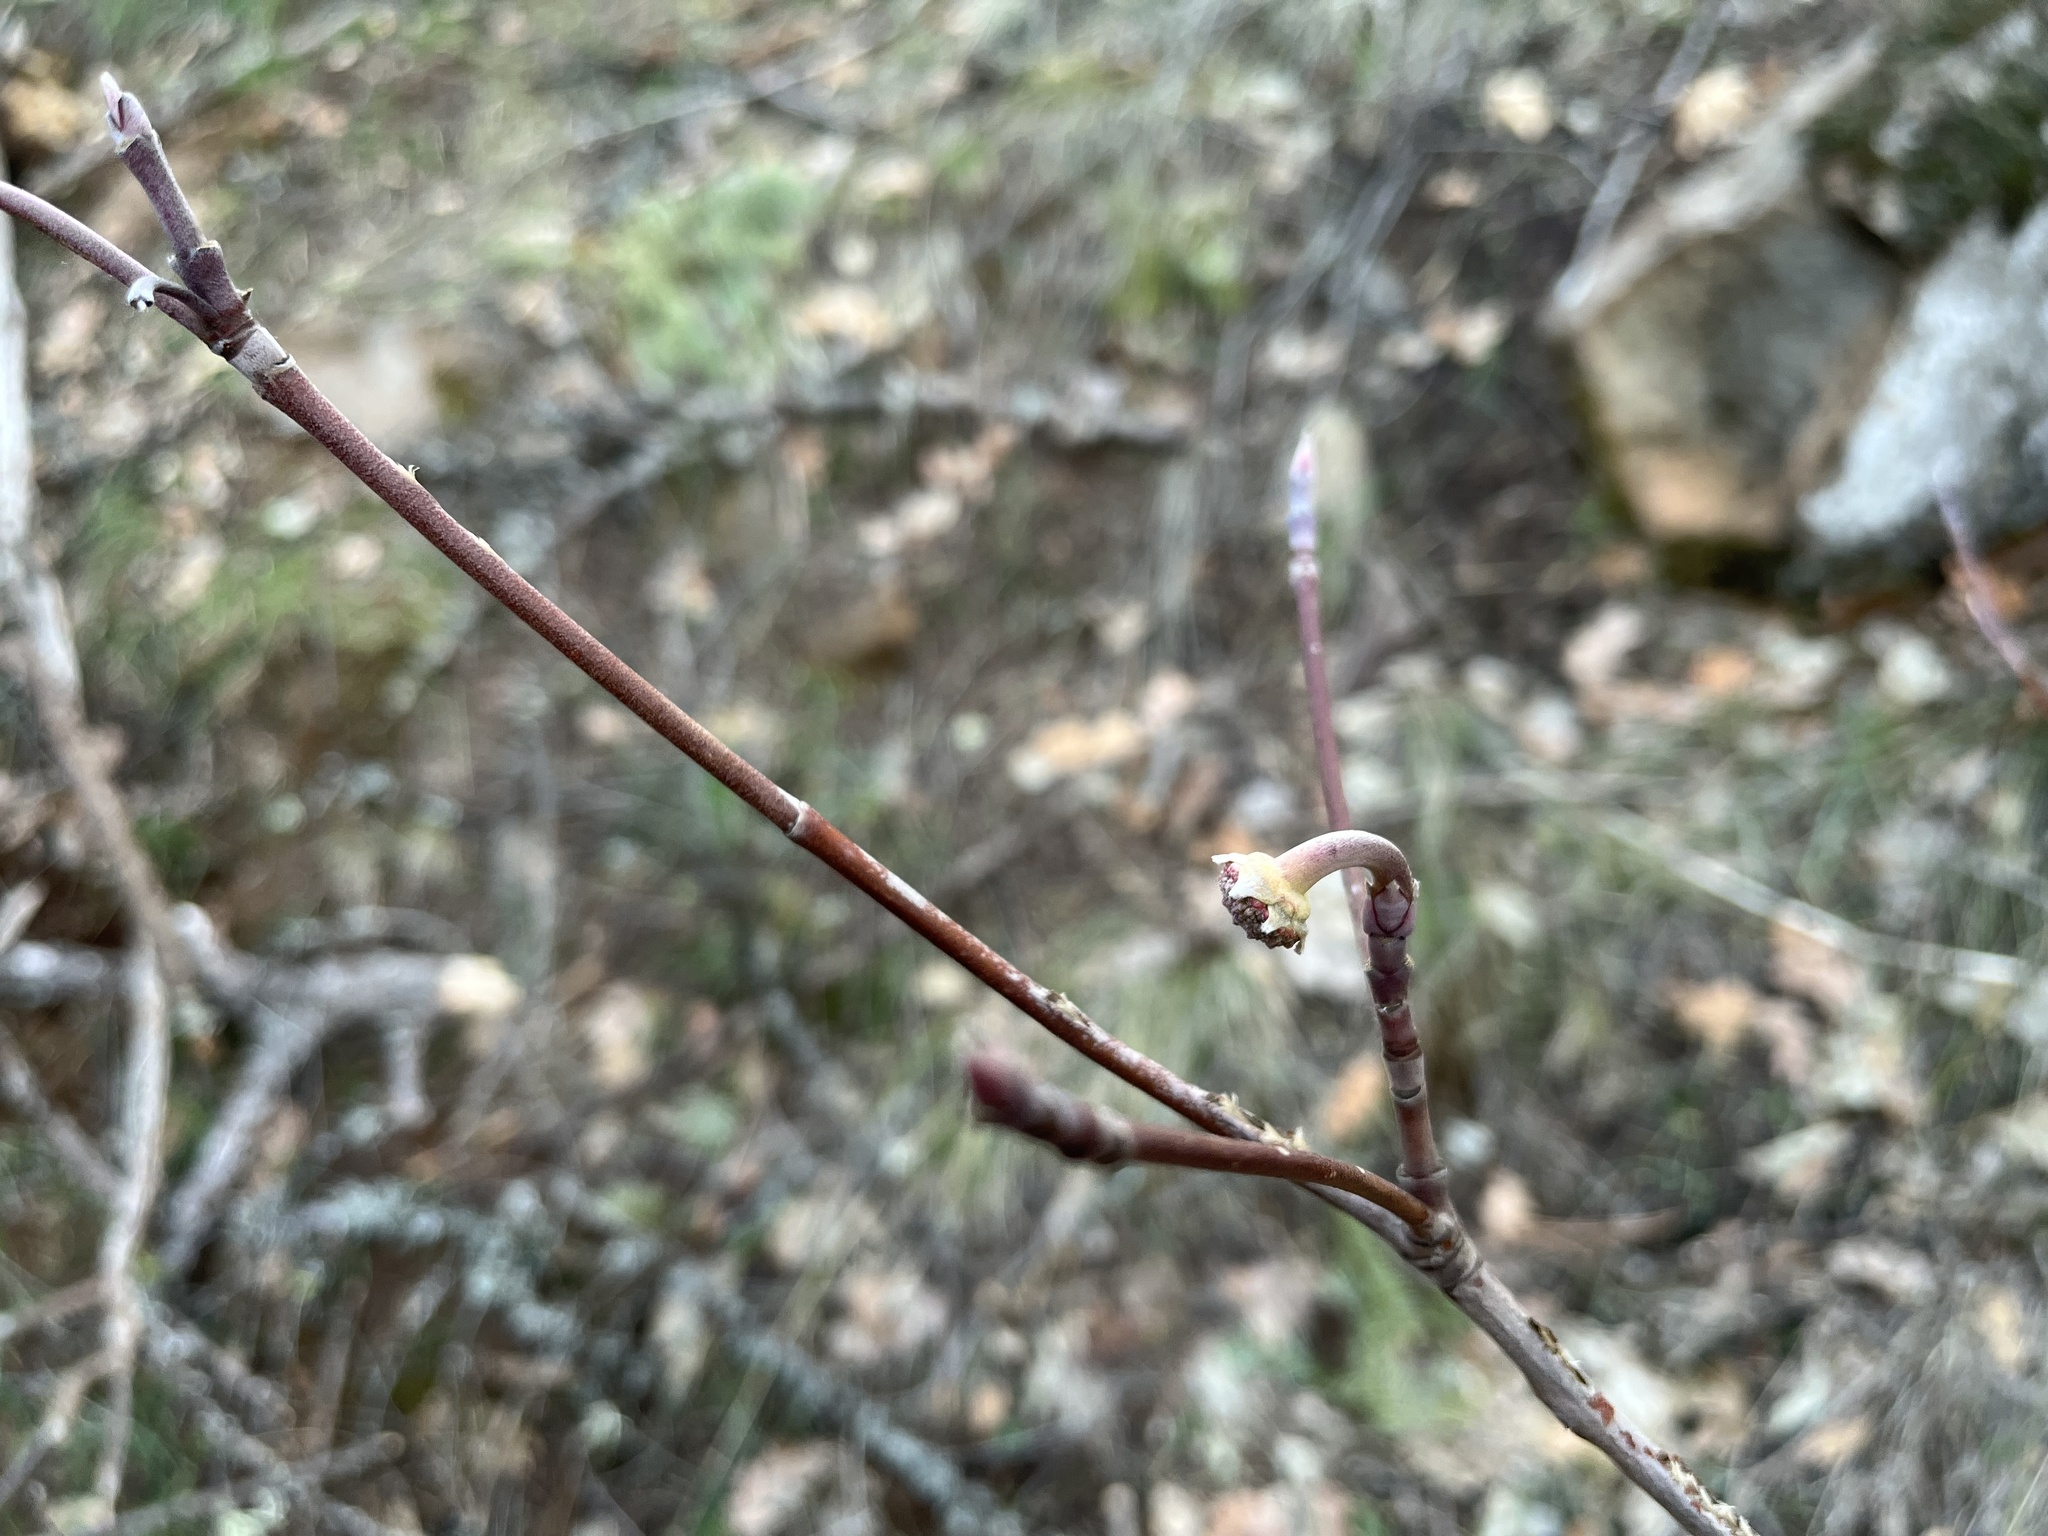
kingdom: Plantae
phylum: Tracheophyta
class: Magnoliopsida
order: Cornales
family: Cornaceae
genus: Cornus
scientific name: Cornus nuttallii
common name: Pacific dogwood
